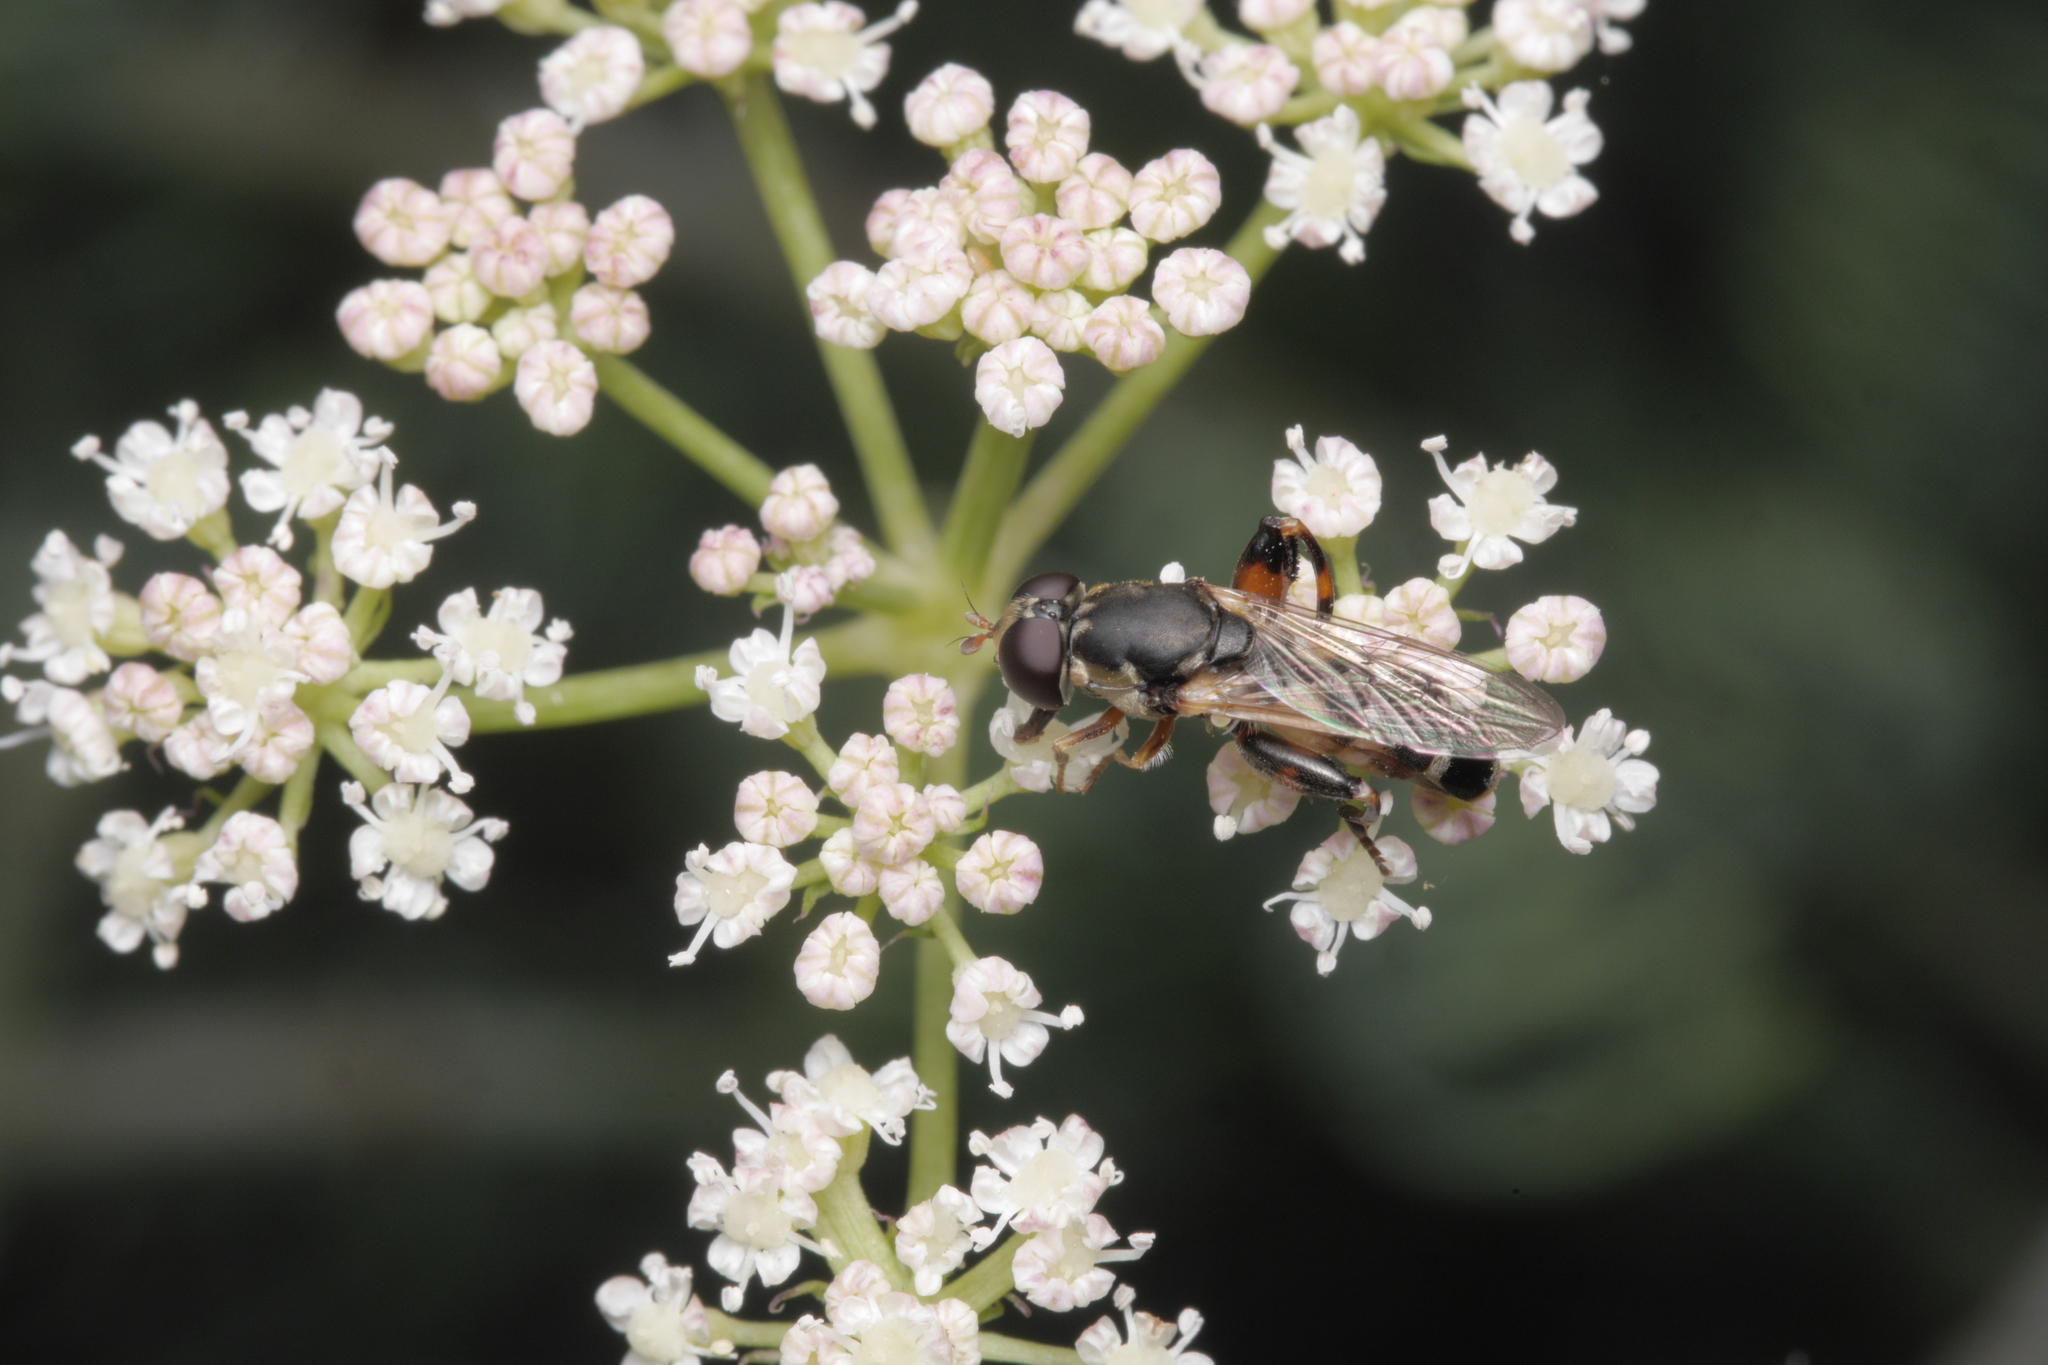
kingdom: Animalia
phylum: Arthropoda
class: Insecta
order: Diptera
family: Syrphidae
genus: Syritta
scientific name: Syritta pipiens
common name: Hover fly
